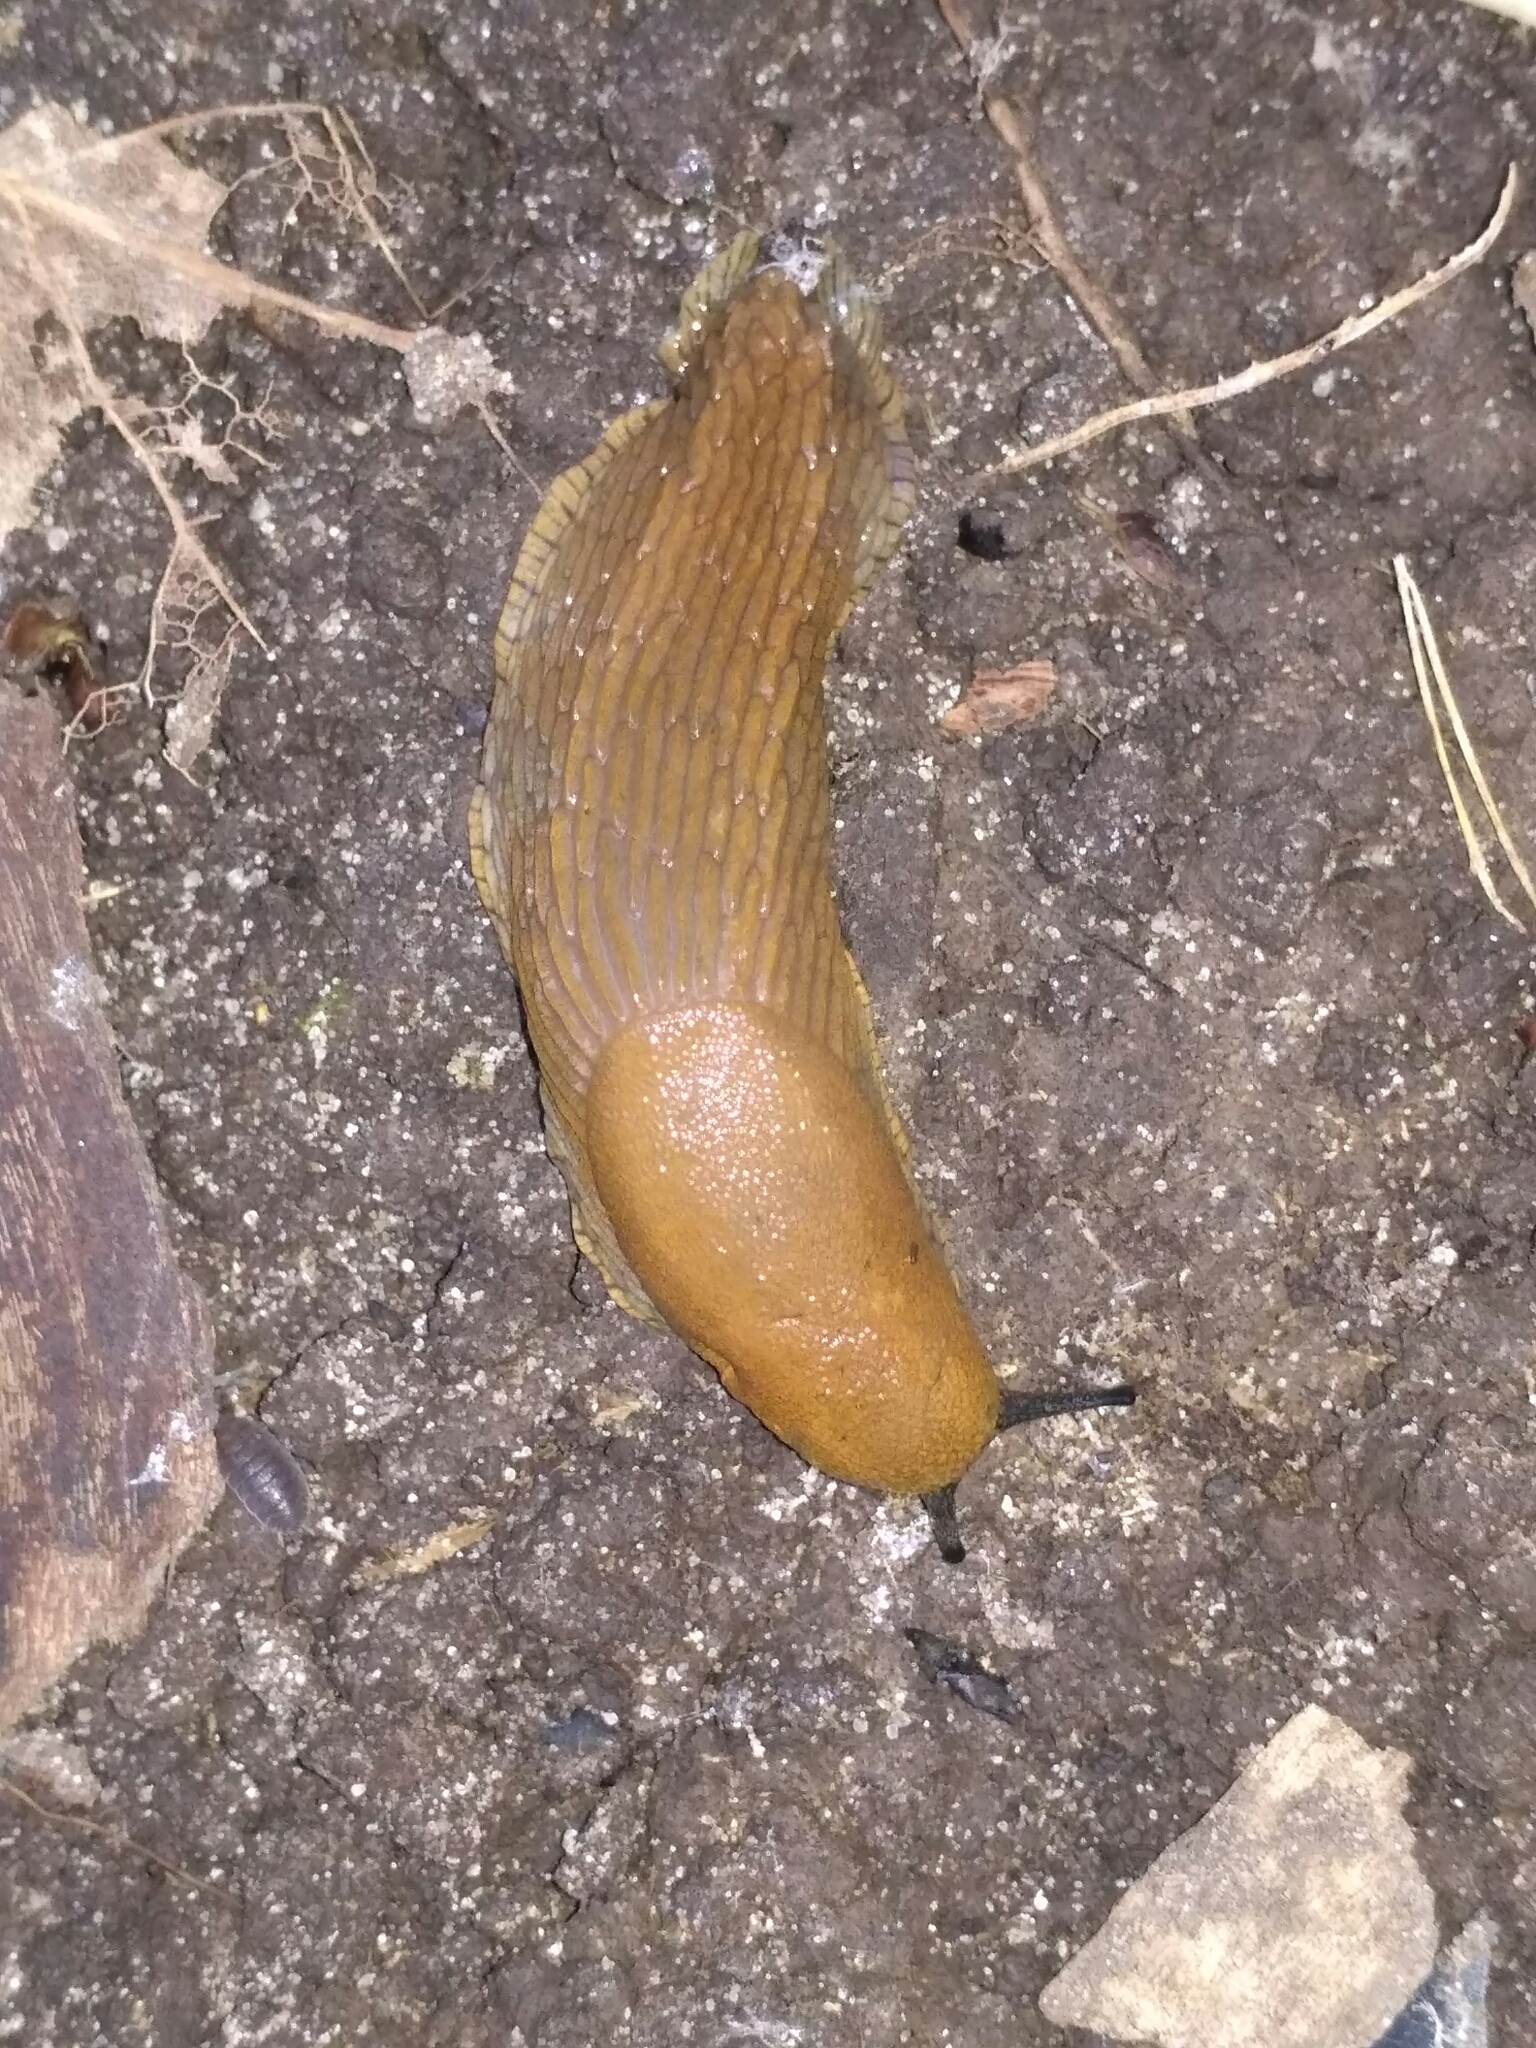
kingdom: Animalia
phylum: Mollusca
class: Gastropoda
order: Stylommatophora
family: Arionidae
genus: Arion
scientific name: Arion vulgaris
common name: Lusitanian slug
